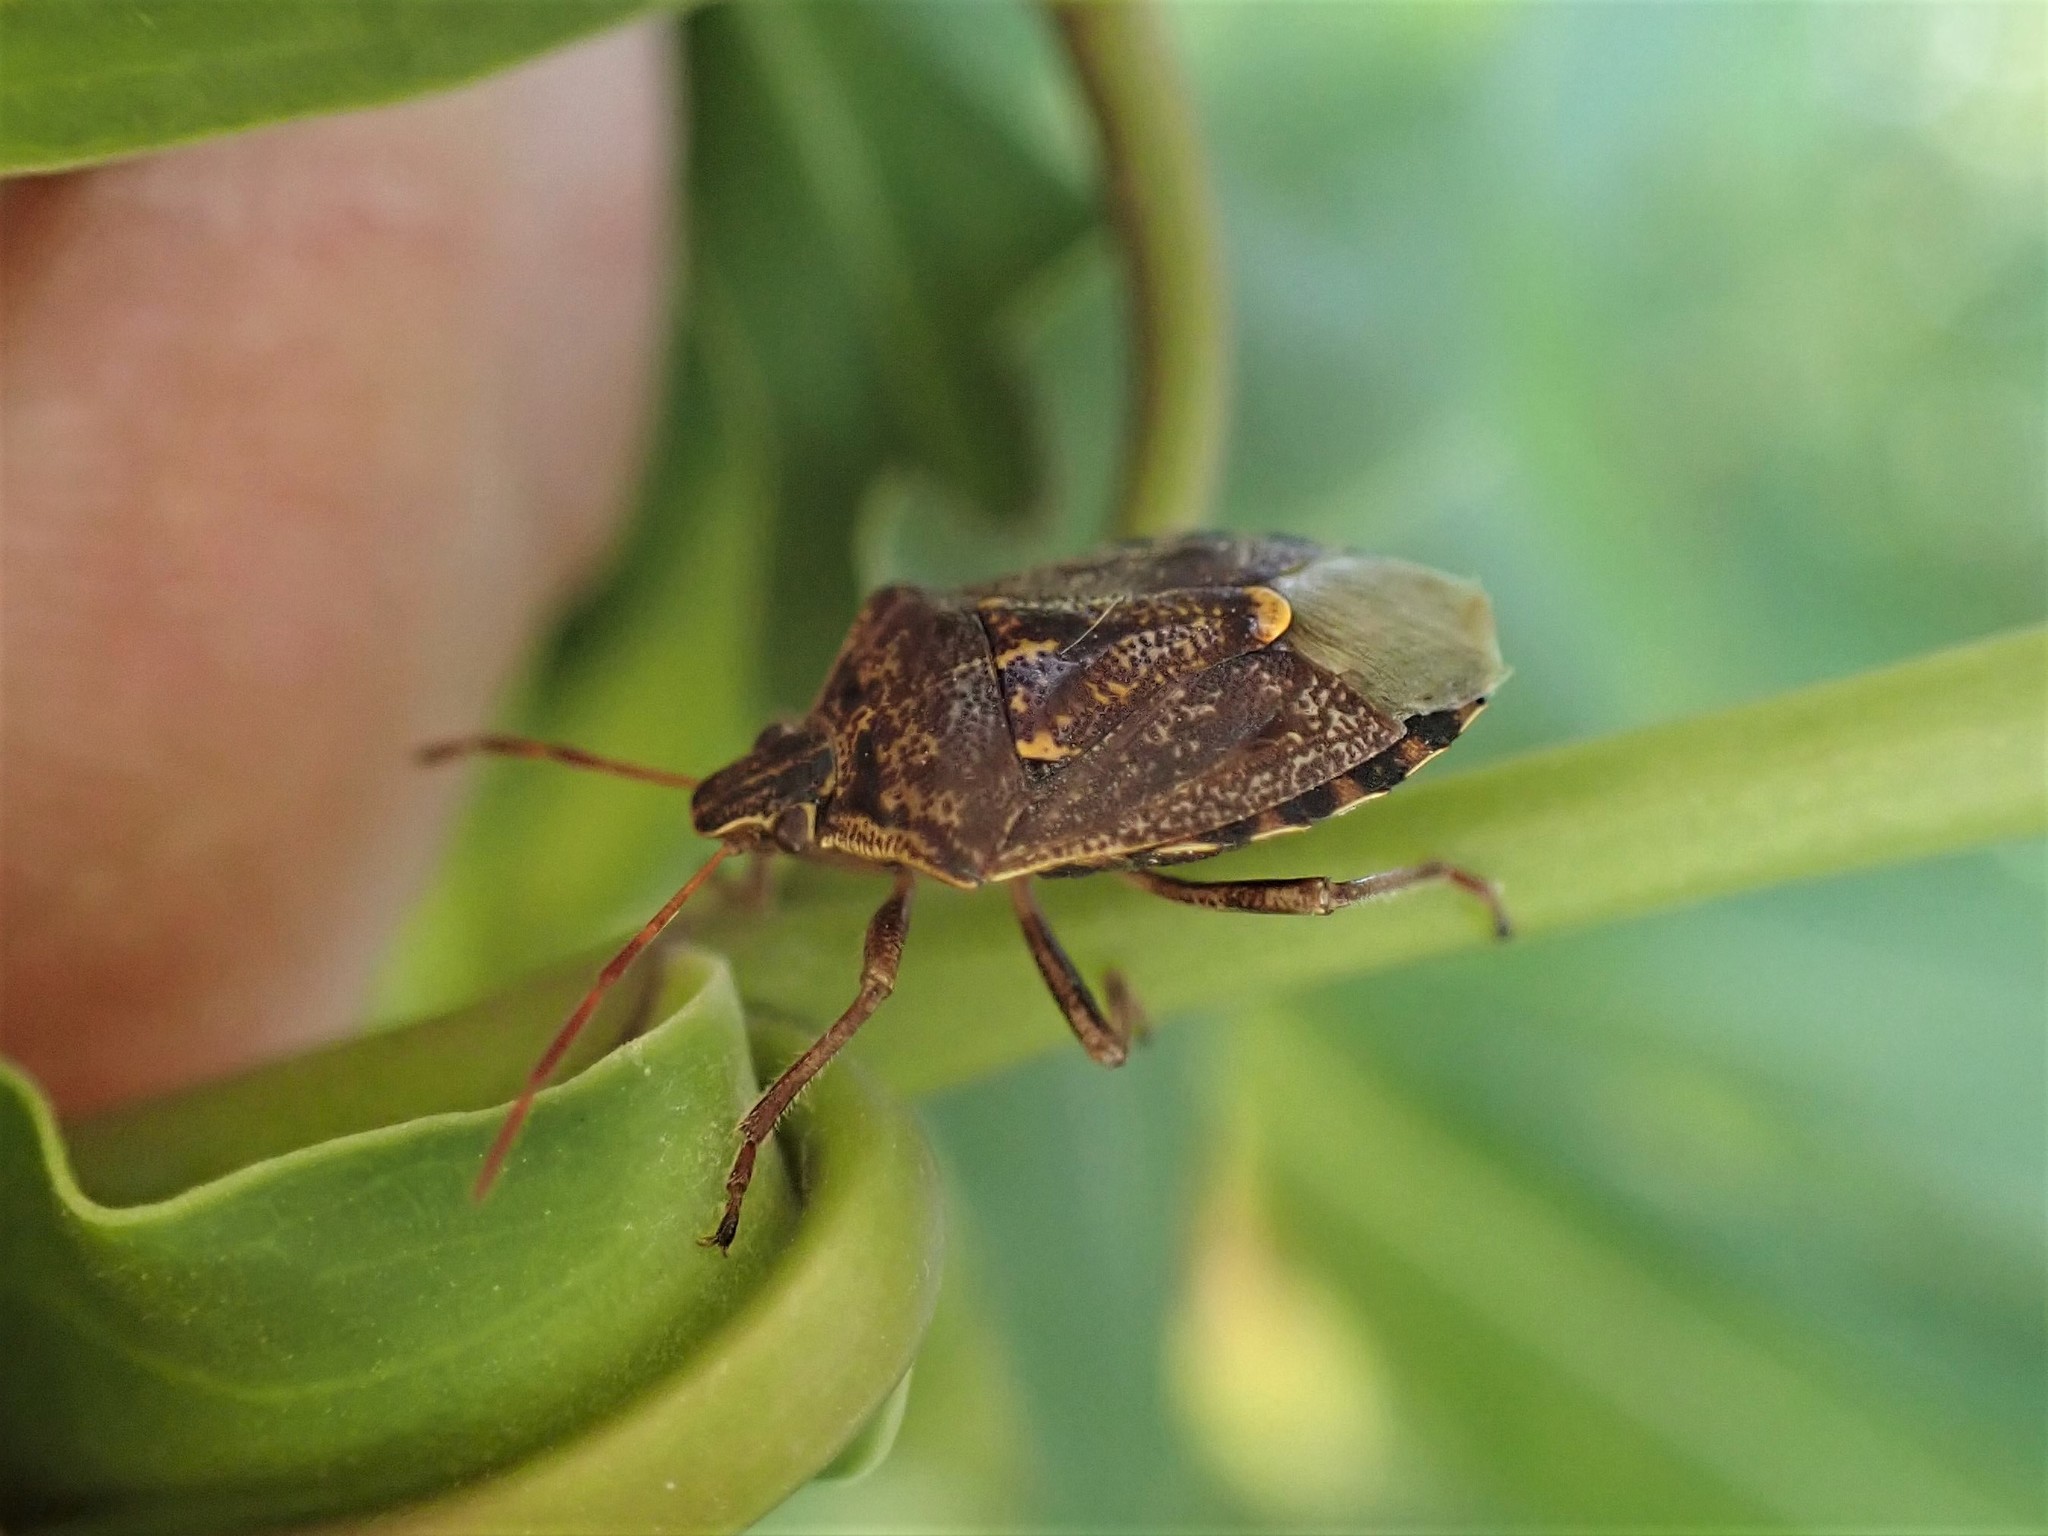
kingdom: Animalia
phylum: Arthropoda
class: Insecta
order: Hemiptera
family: Pentatomidae
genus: Cermatulus
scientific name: Cermatulus nasalis
